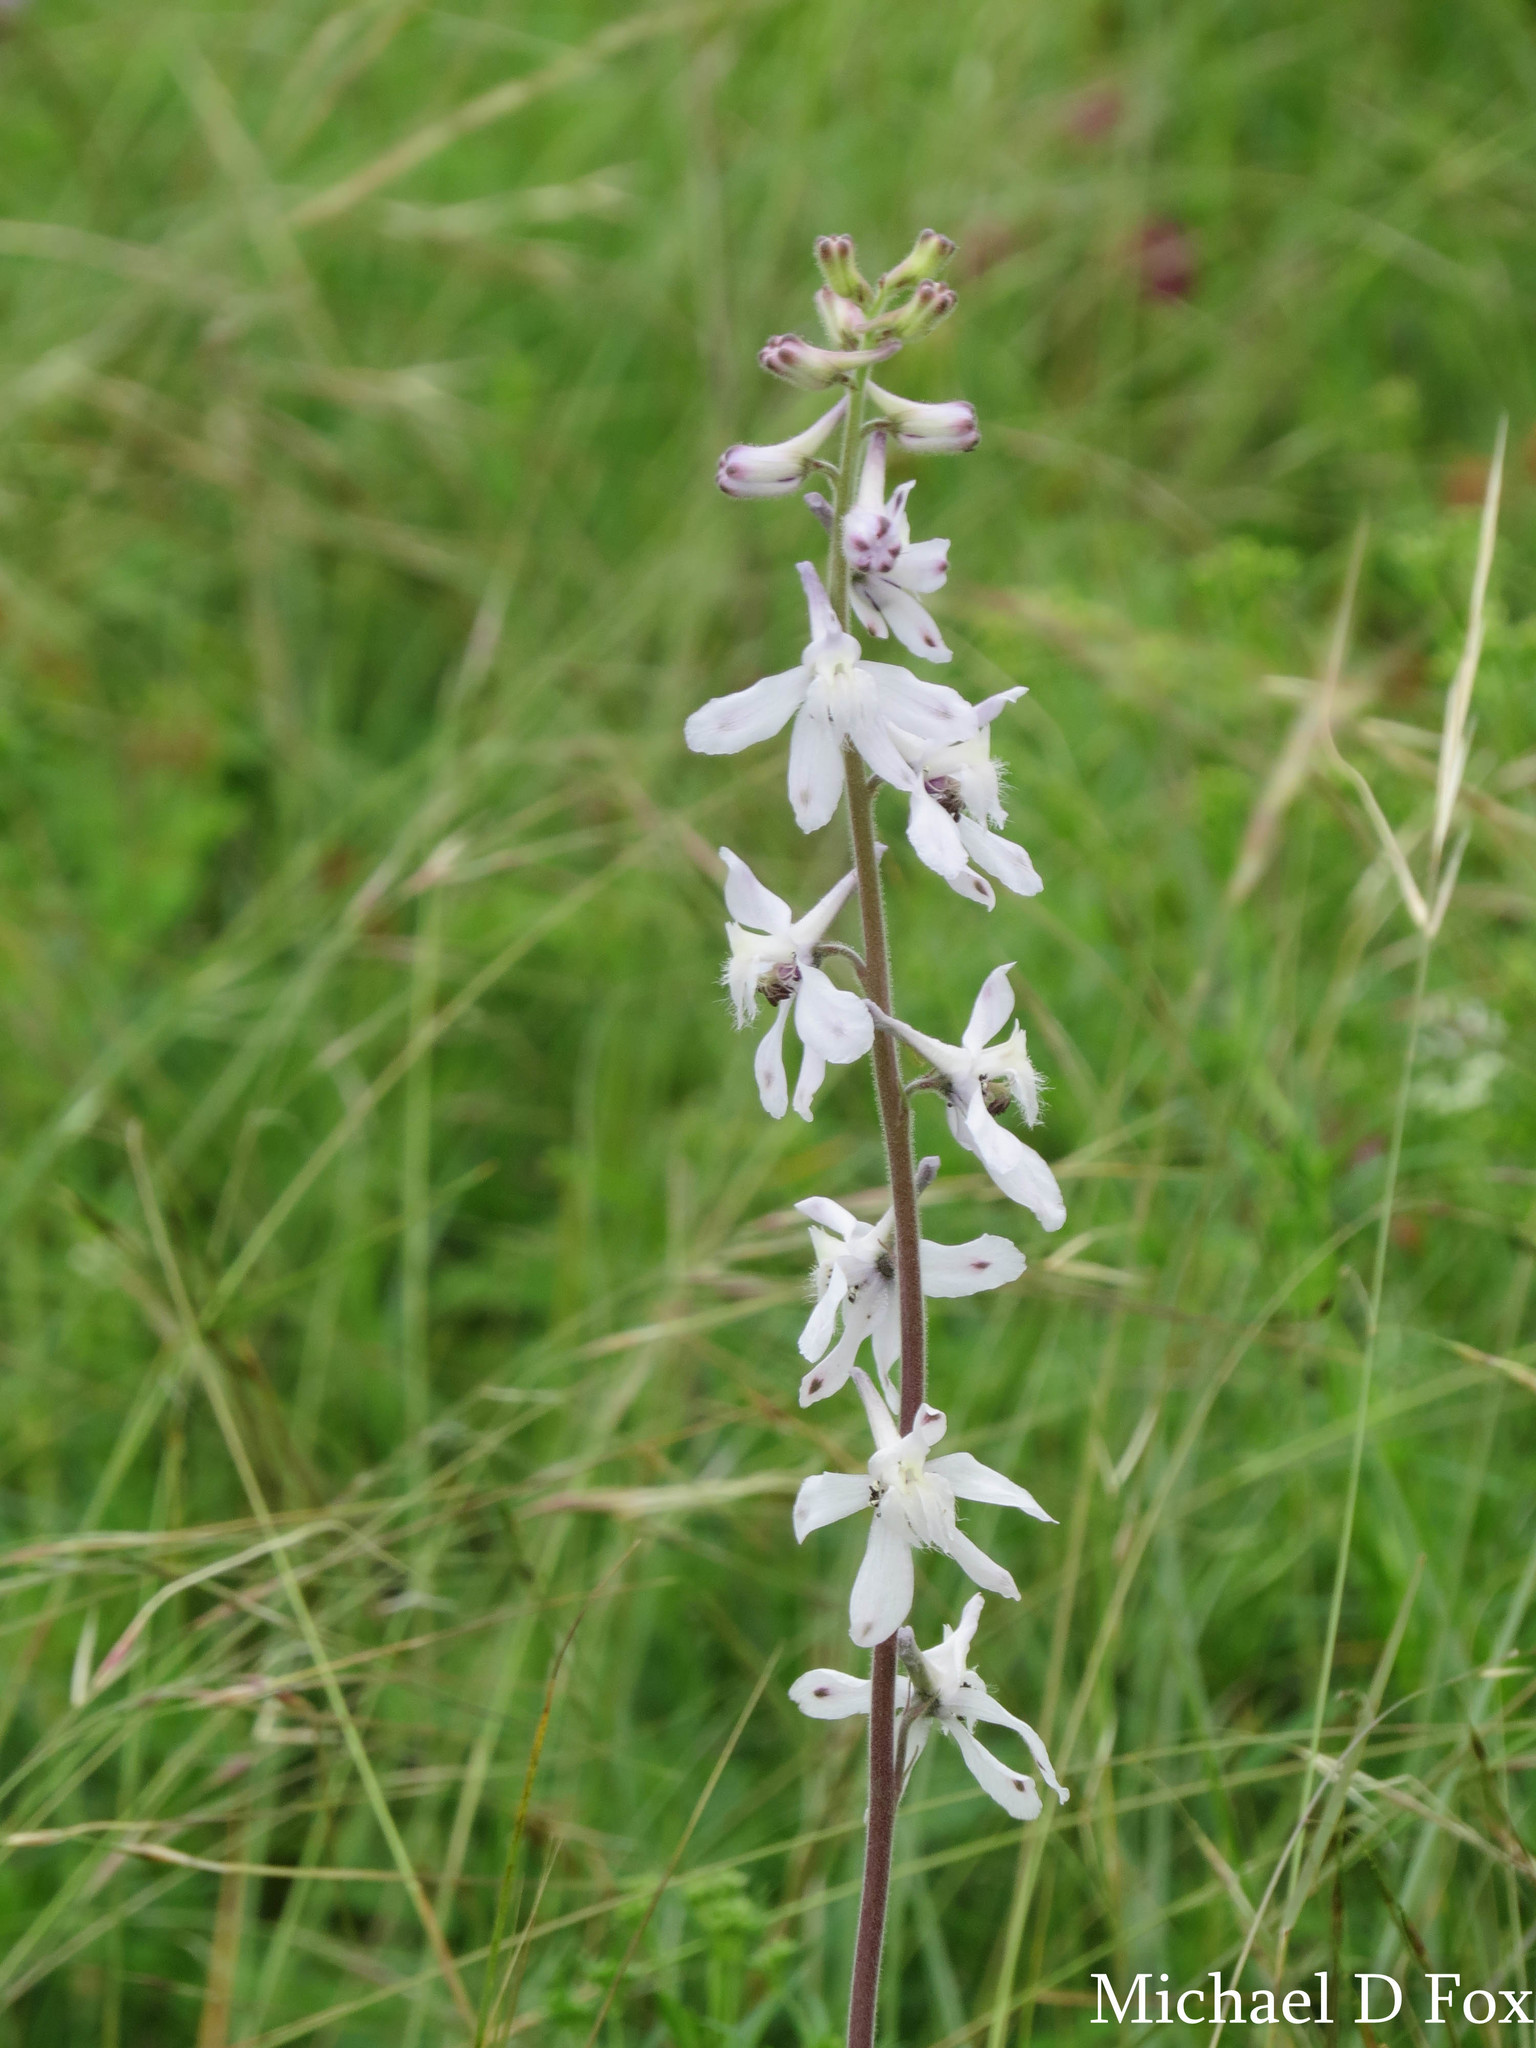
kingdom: Plantae
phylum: Tracheophyta
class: Magnoliopsida
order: Ranunculales
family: Ranunculaceae
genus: Delphinium
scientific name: Delphinium carolinianum
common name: Carolina larkspur
